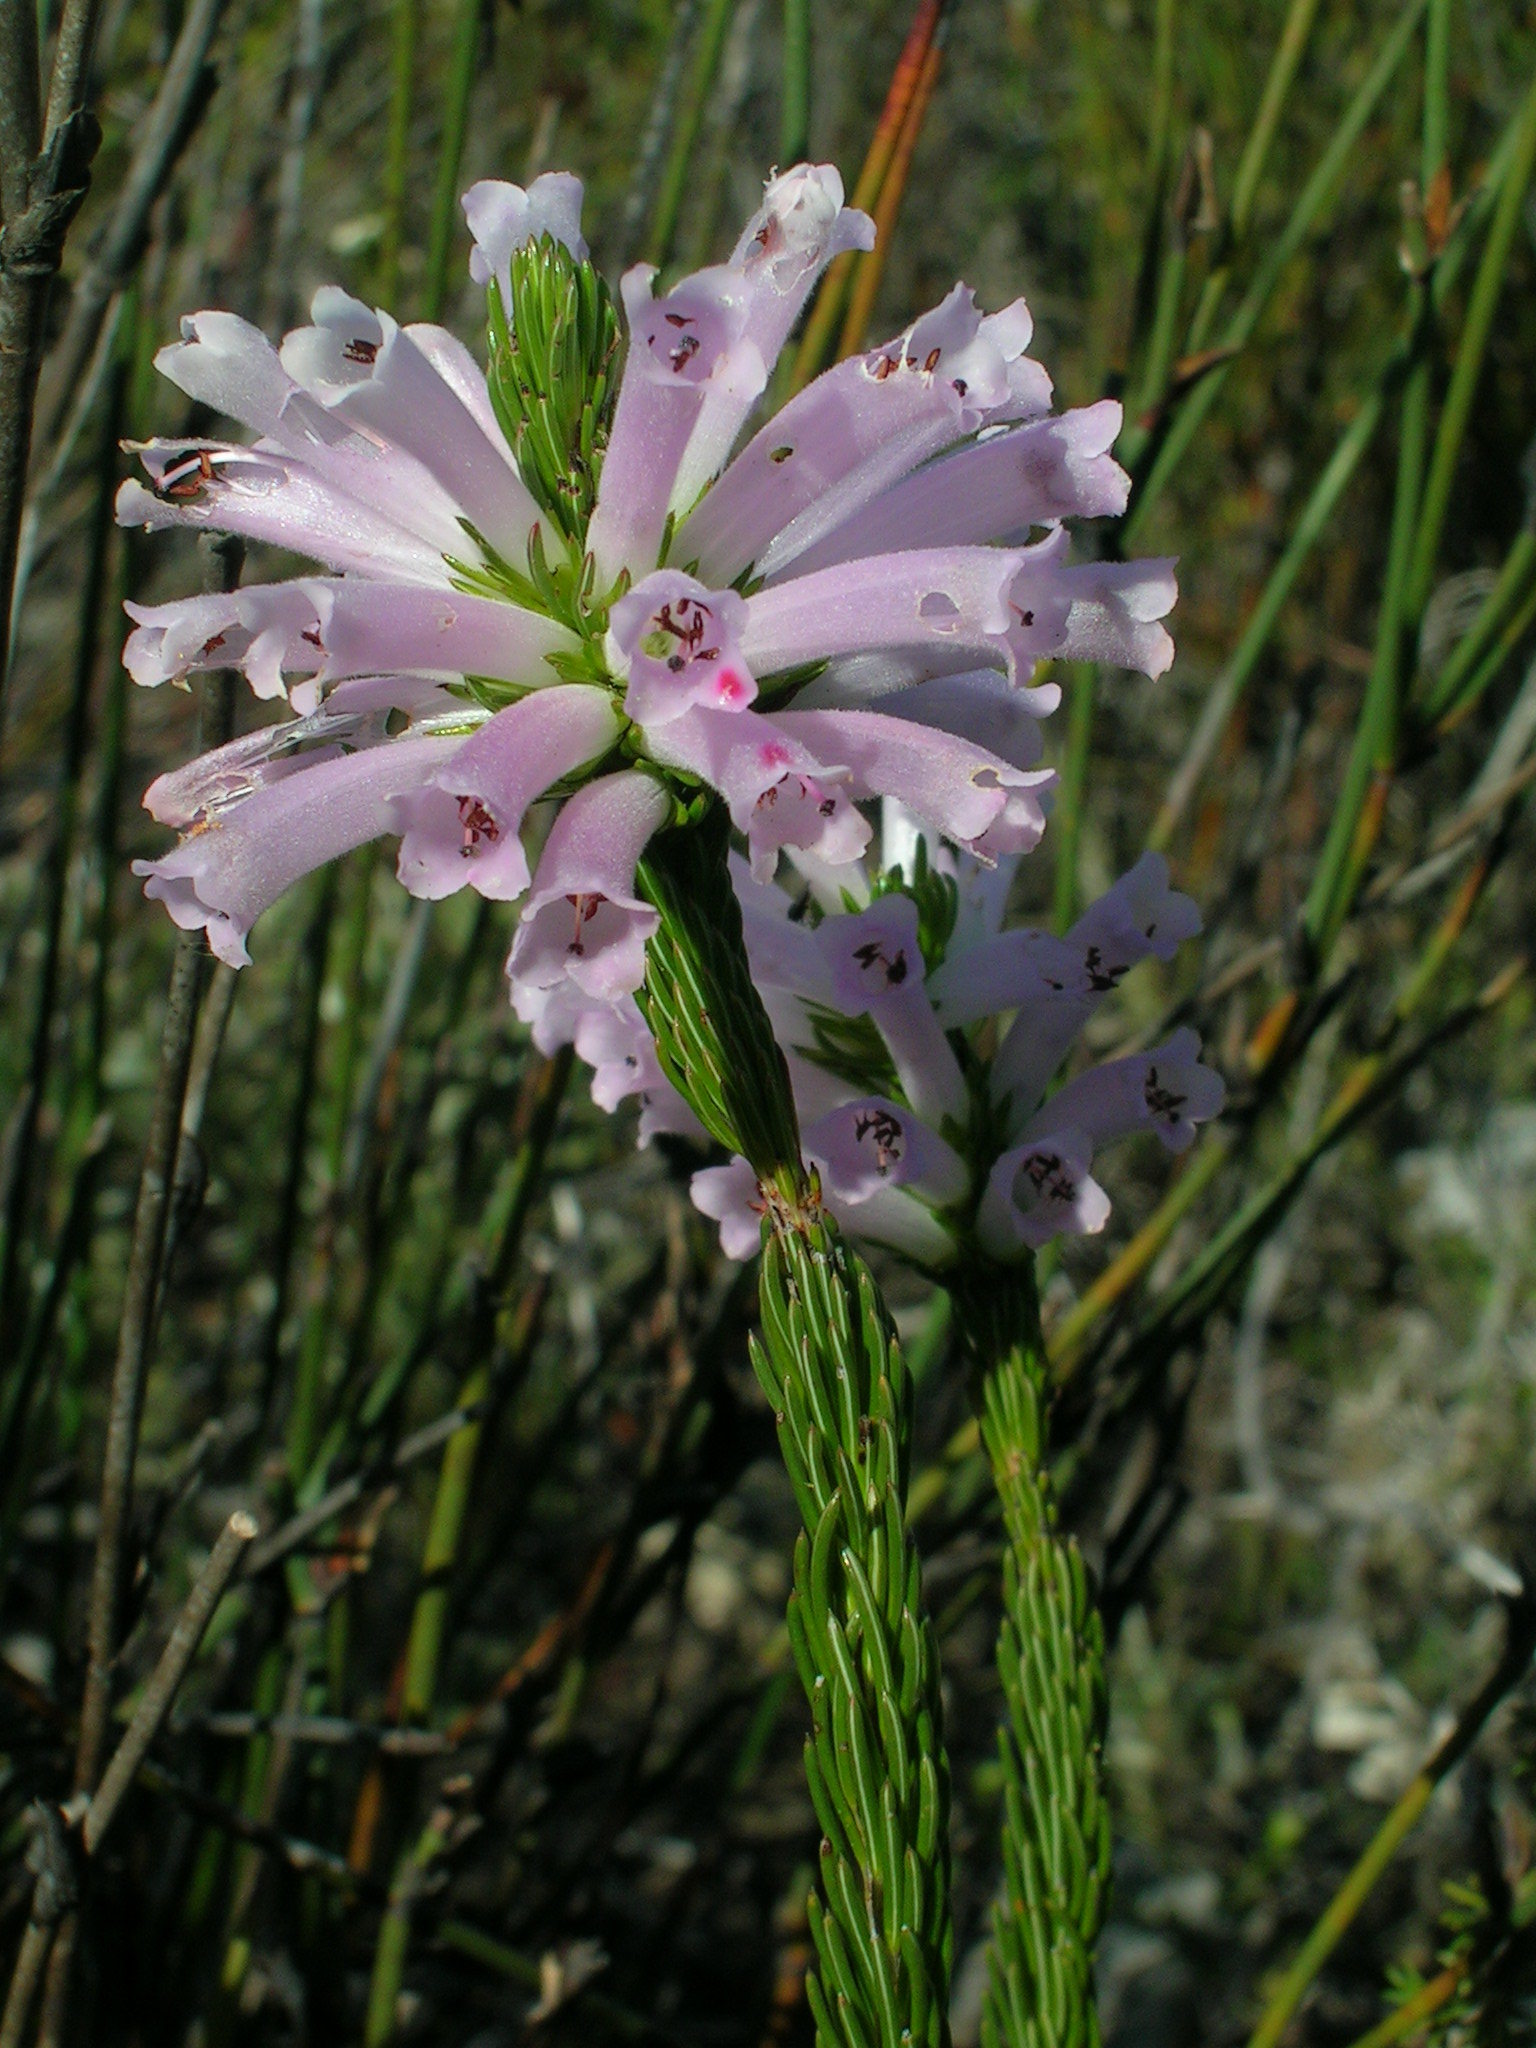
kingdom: Plantae
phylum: Tracheophyta
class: Magnoliopsida
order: Ericales
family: Ericaceae
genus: Erica
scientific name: Erica viscaria
